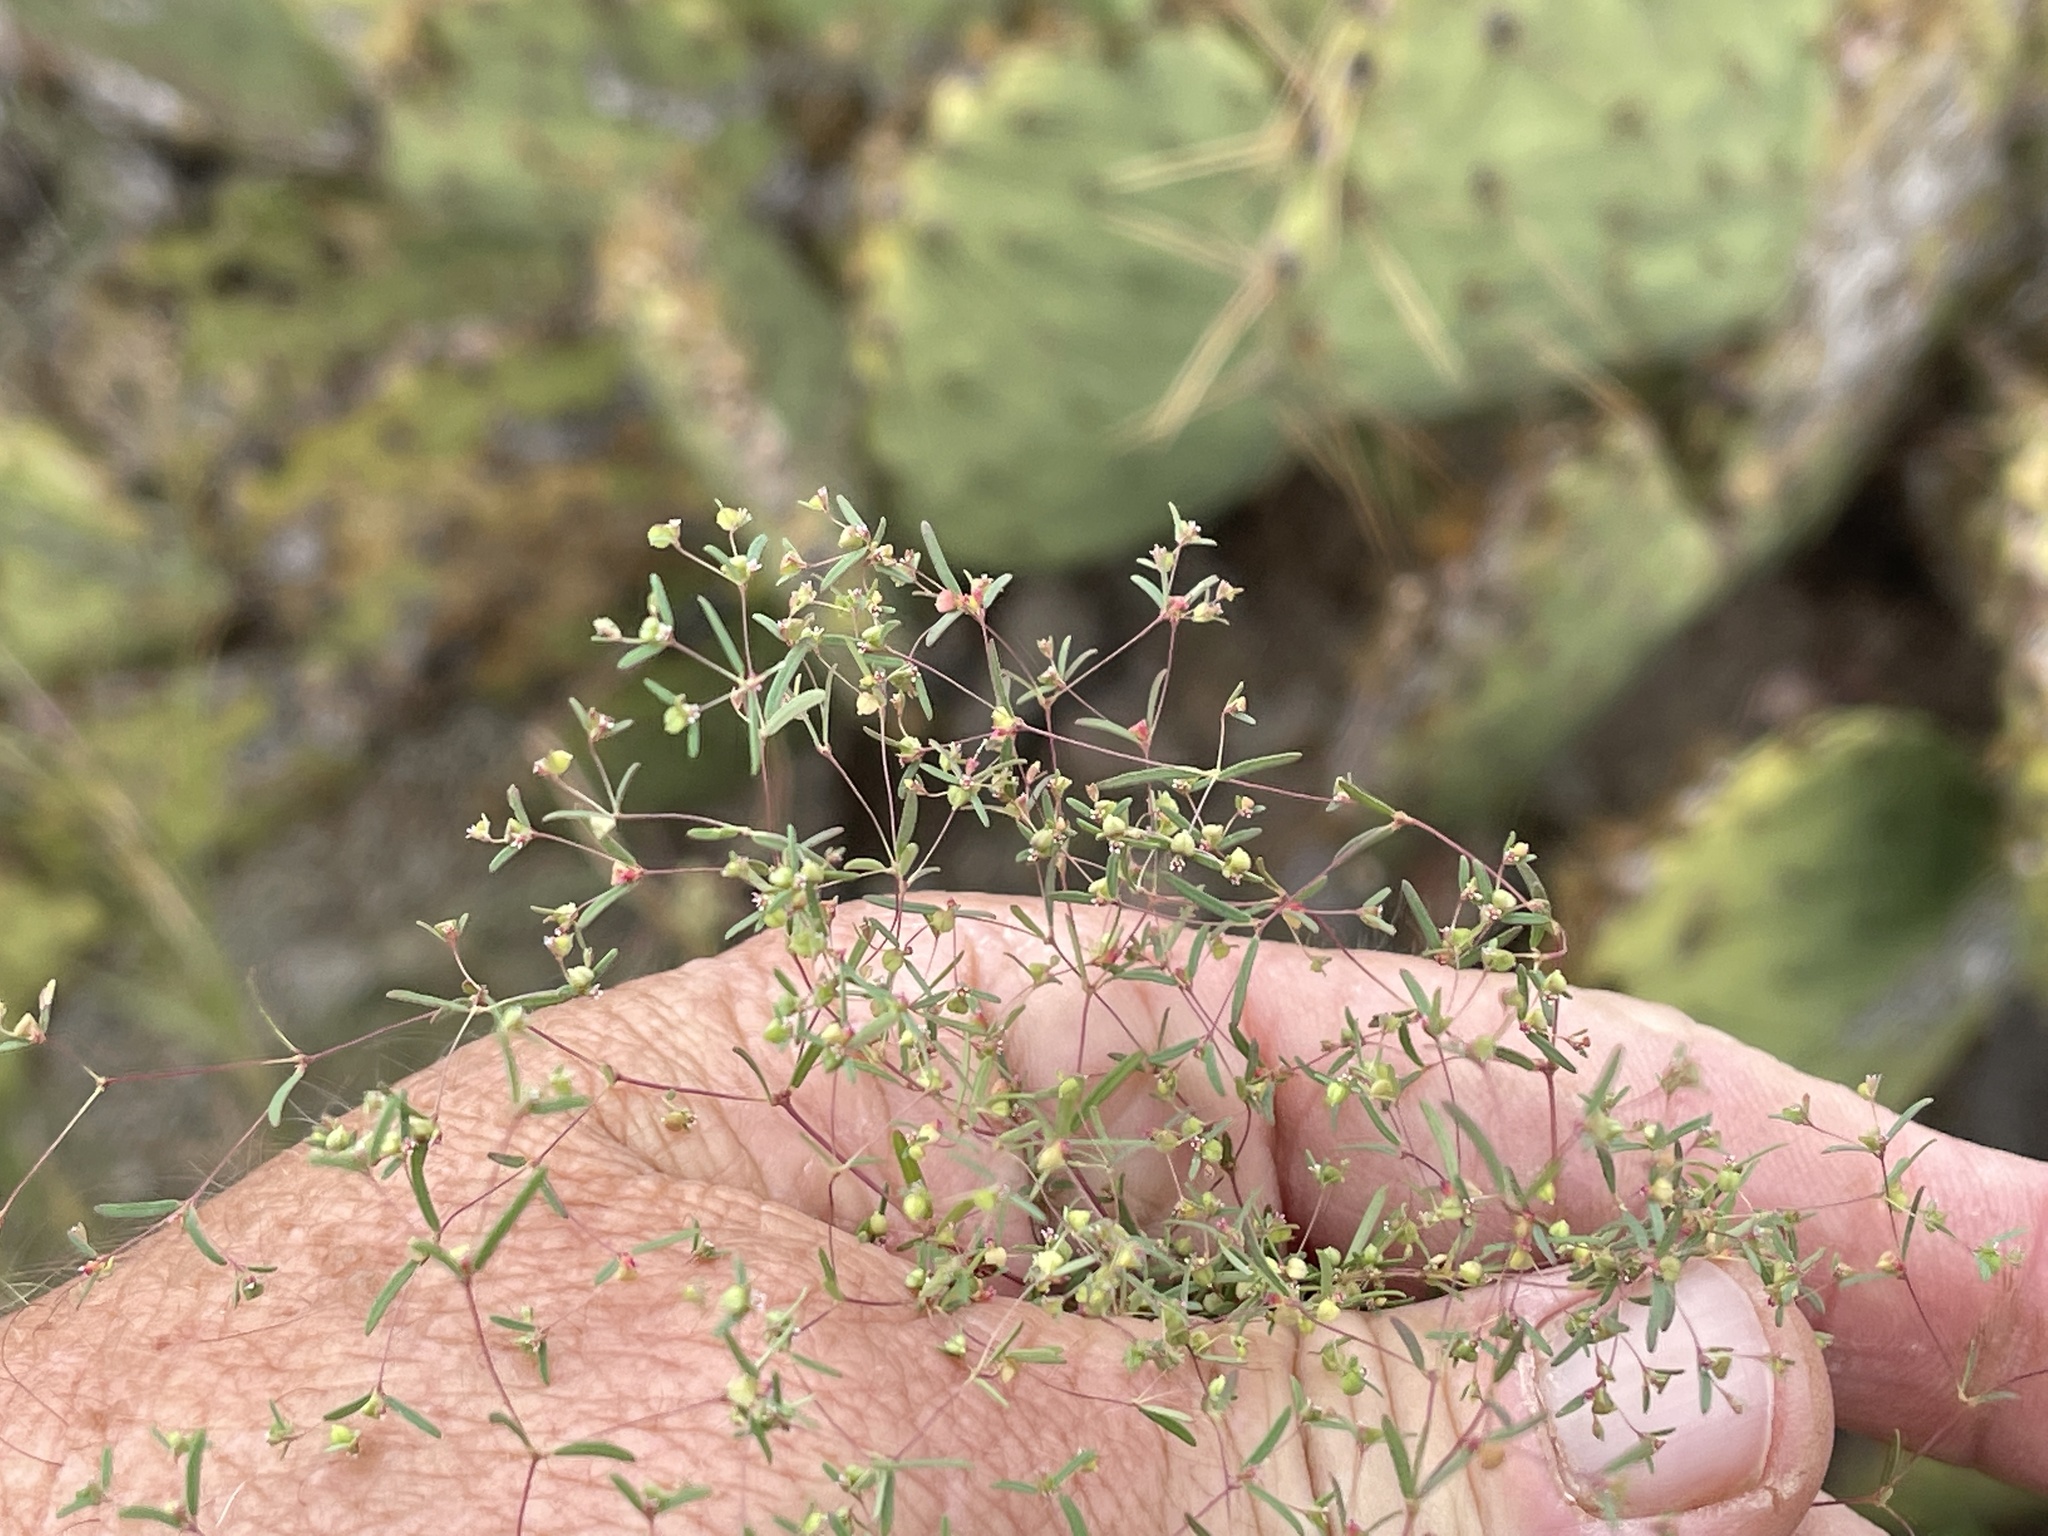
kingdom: Plantae
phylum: Tracheophyta
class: Magnoliopsida
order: Malpighiales
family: Euphorbiaceae
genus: Euphorbia
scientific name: Euphorbia gracillima
